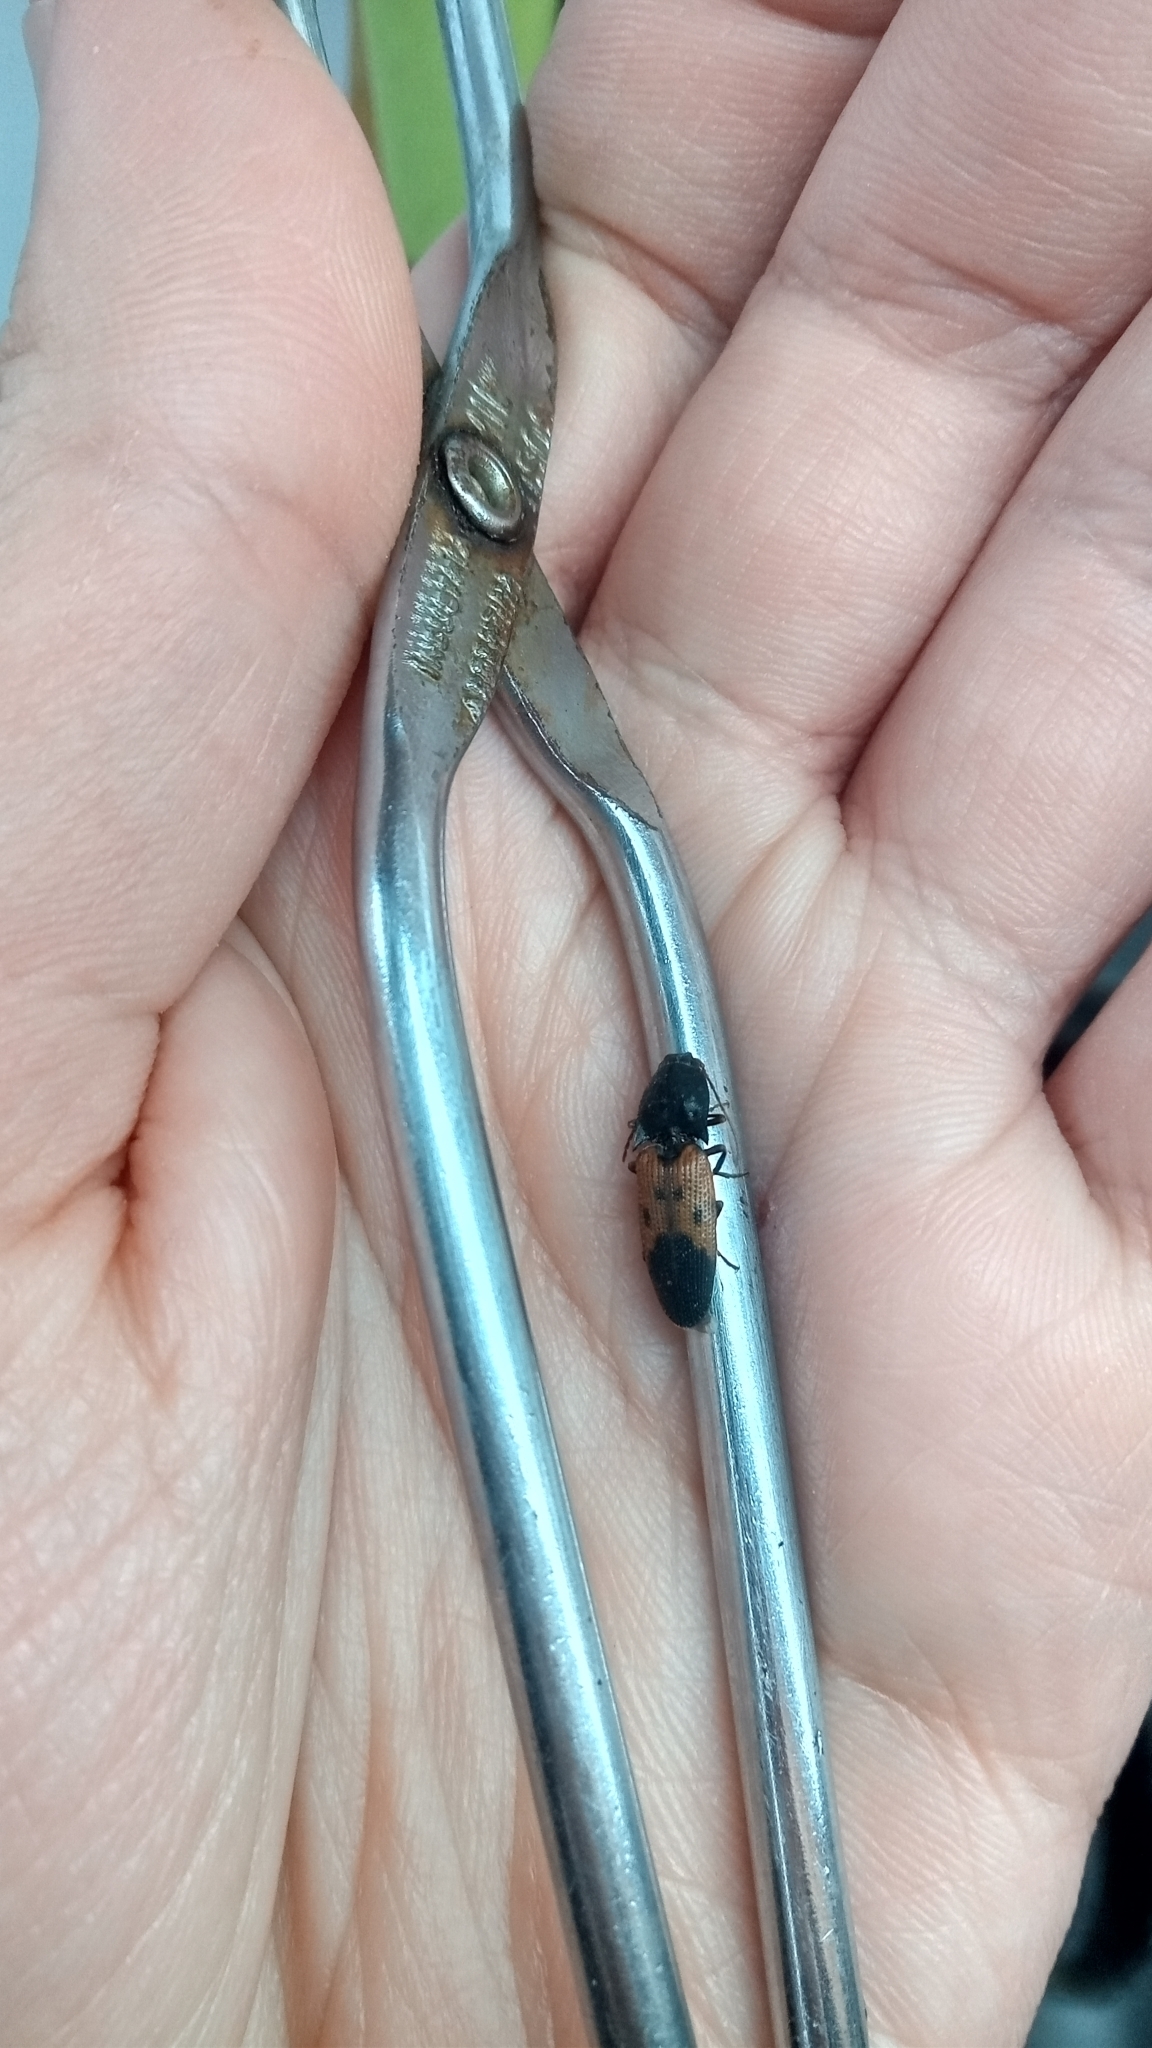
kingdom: Animalia
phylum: Arthropoda
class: Insecta
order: Coleoptera
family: Elateridae
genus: Monocrepidius
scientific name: Monocrepidius
